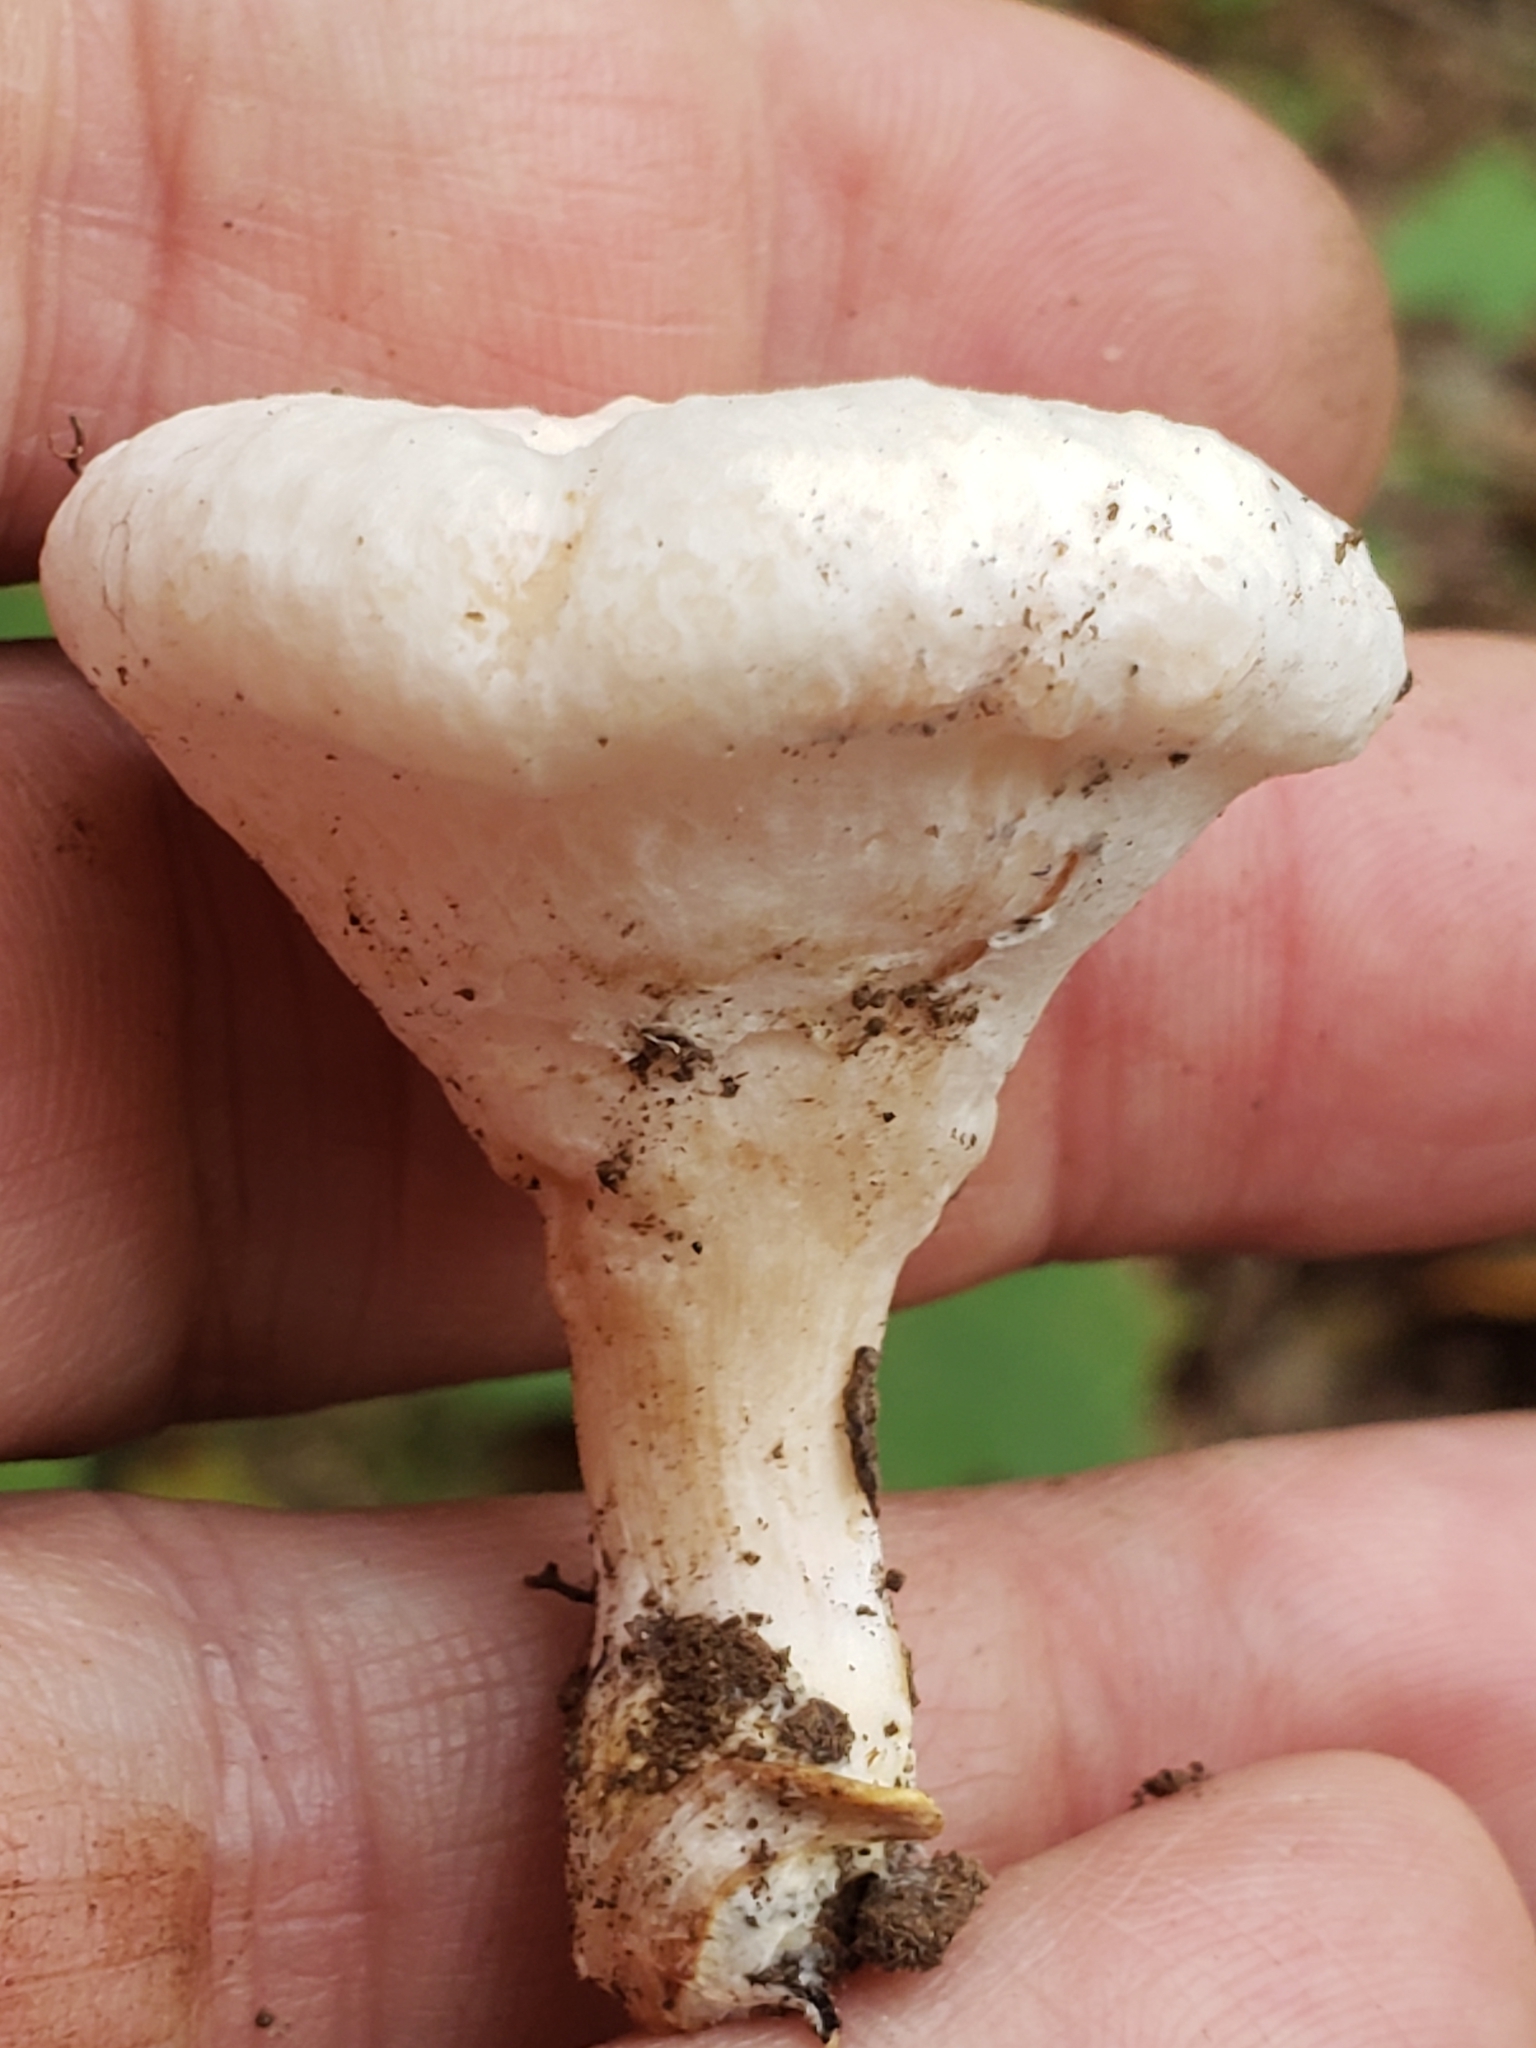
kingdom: Fungi
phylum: Basidiomycota
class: Agaricomycetes
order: Agaricales
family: Entolomataceae
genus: Entoloma
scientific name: Entoloma abortivum
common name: Aborted entoloma
